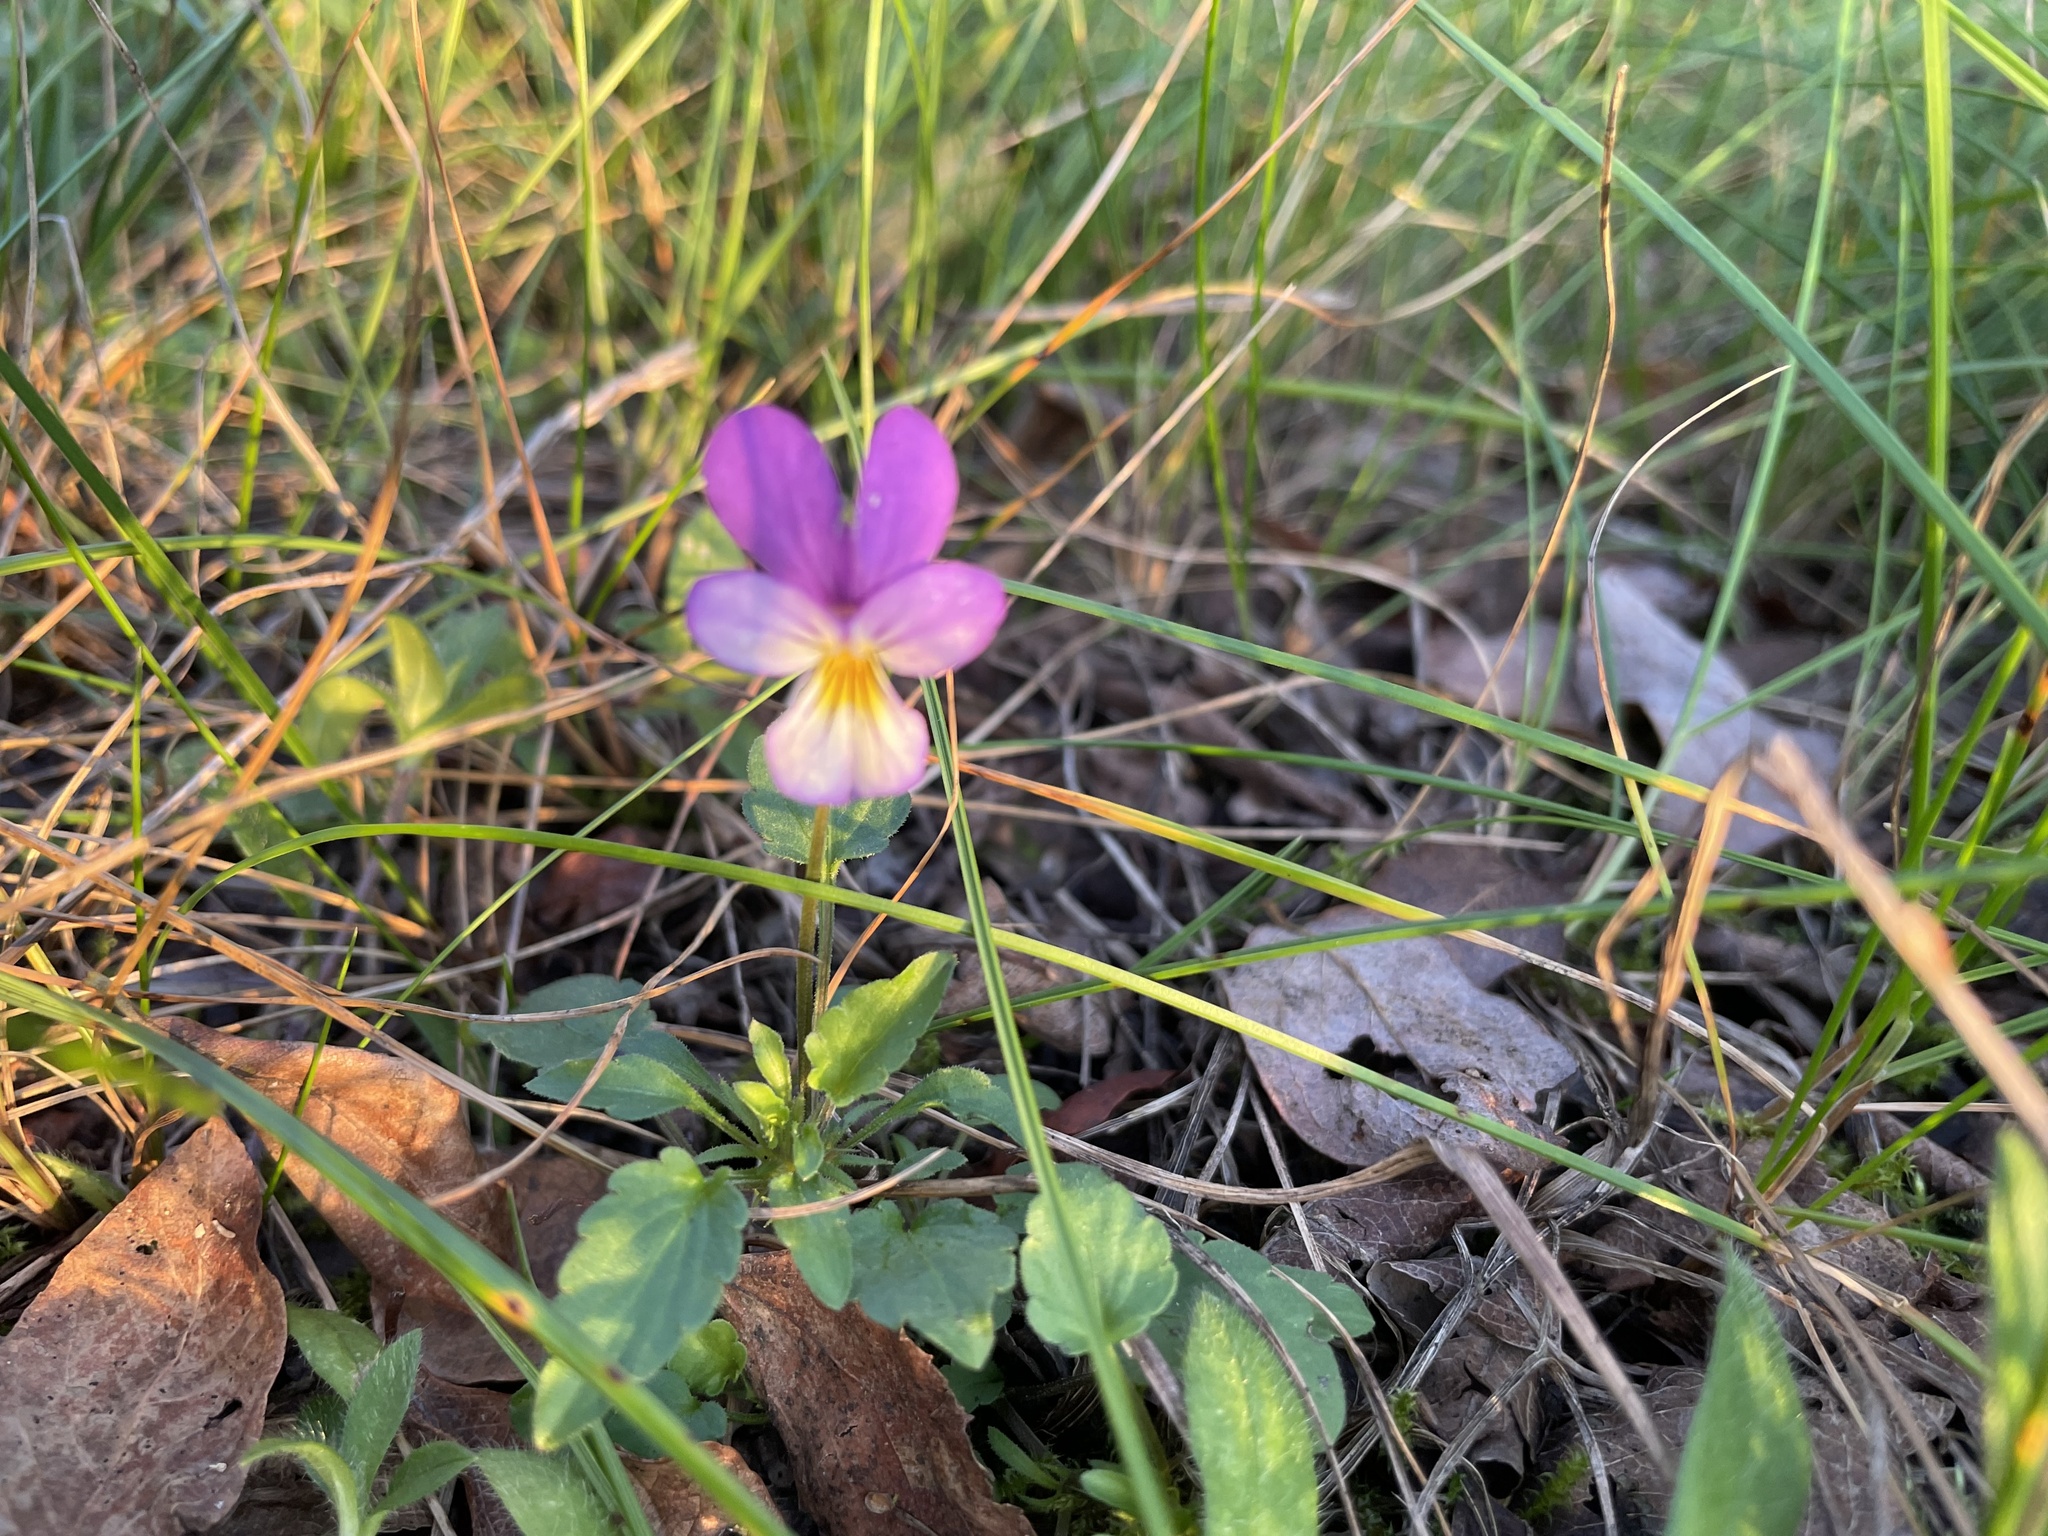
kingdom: Plantae
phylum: Tracheophyta
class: Magnoliopsida
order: Malpighiales
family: Violaceae
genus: Viola
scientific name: Viola tricolor
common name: Pansy
